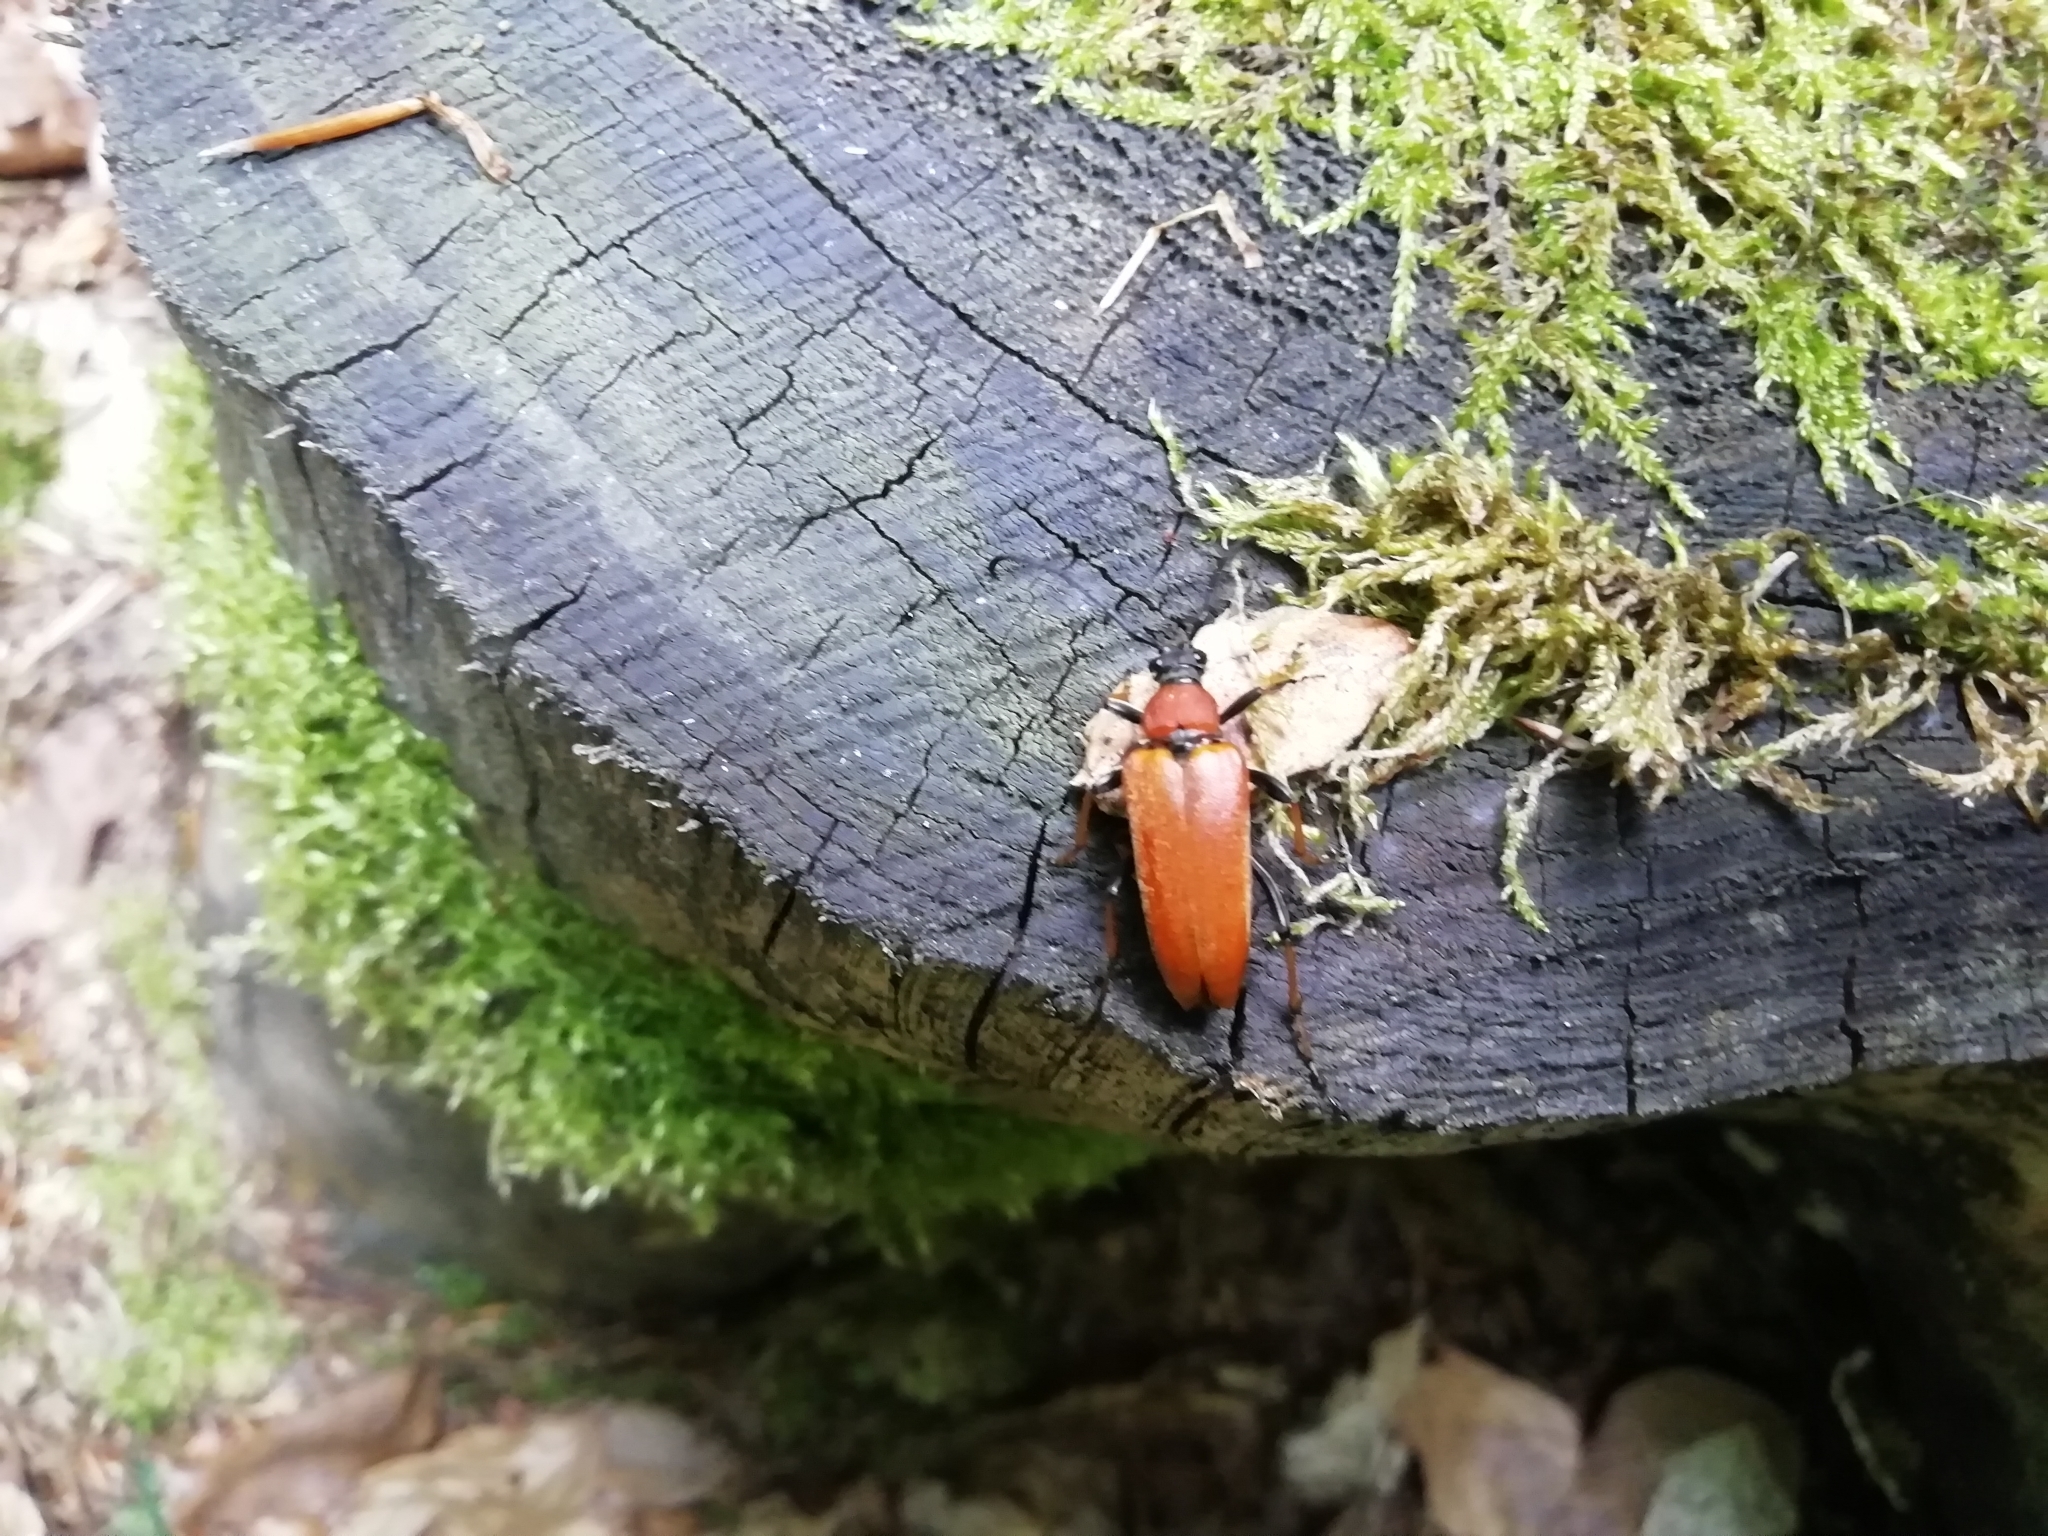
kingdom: Animalia
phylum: Arthropoda
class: Insecta
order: Coleoptera
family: Cerambycidae
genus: Stictoleptura
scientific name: Stictoleptura rubra
